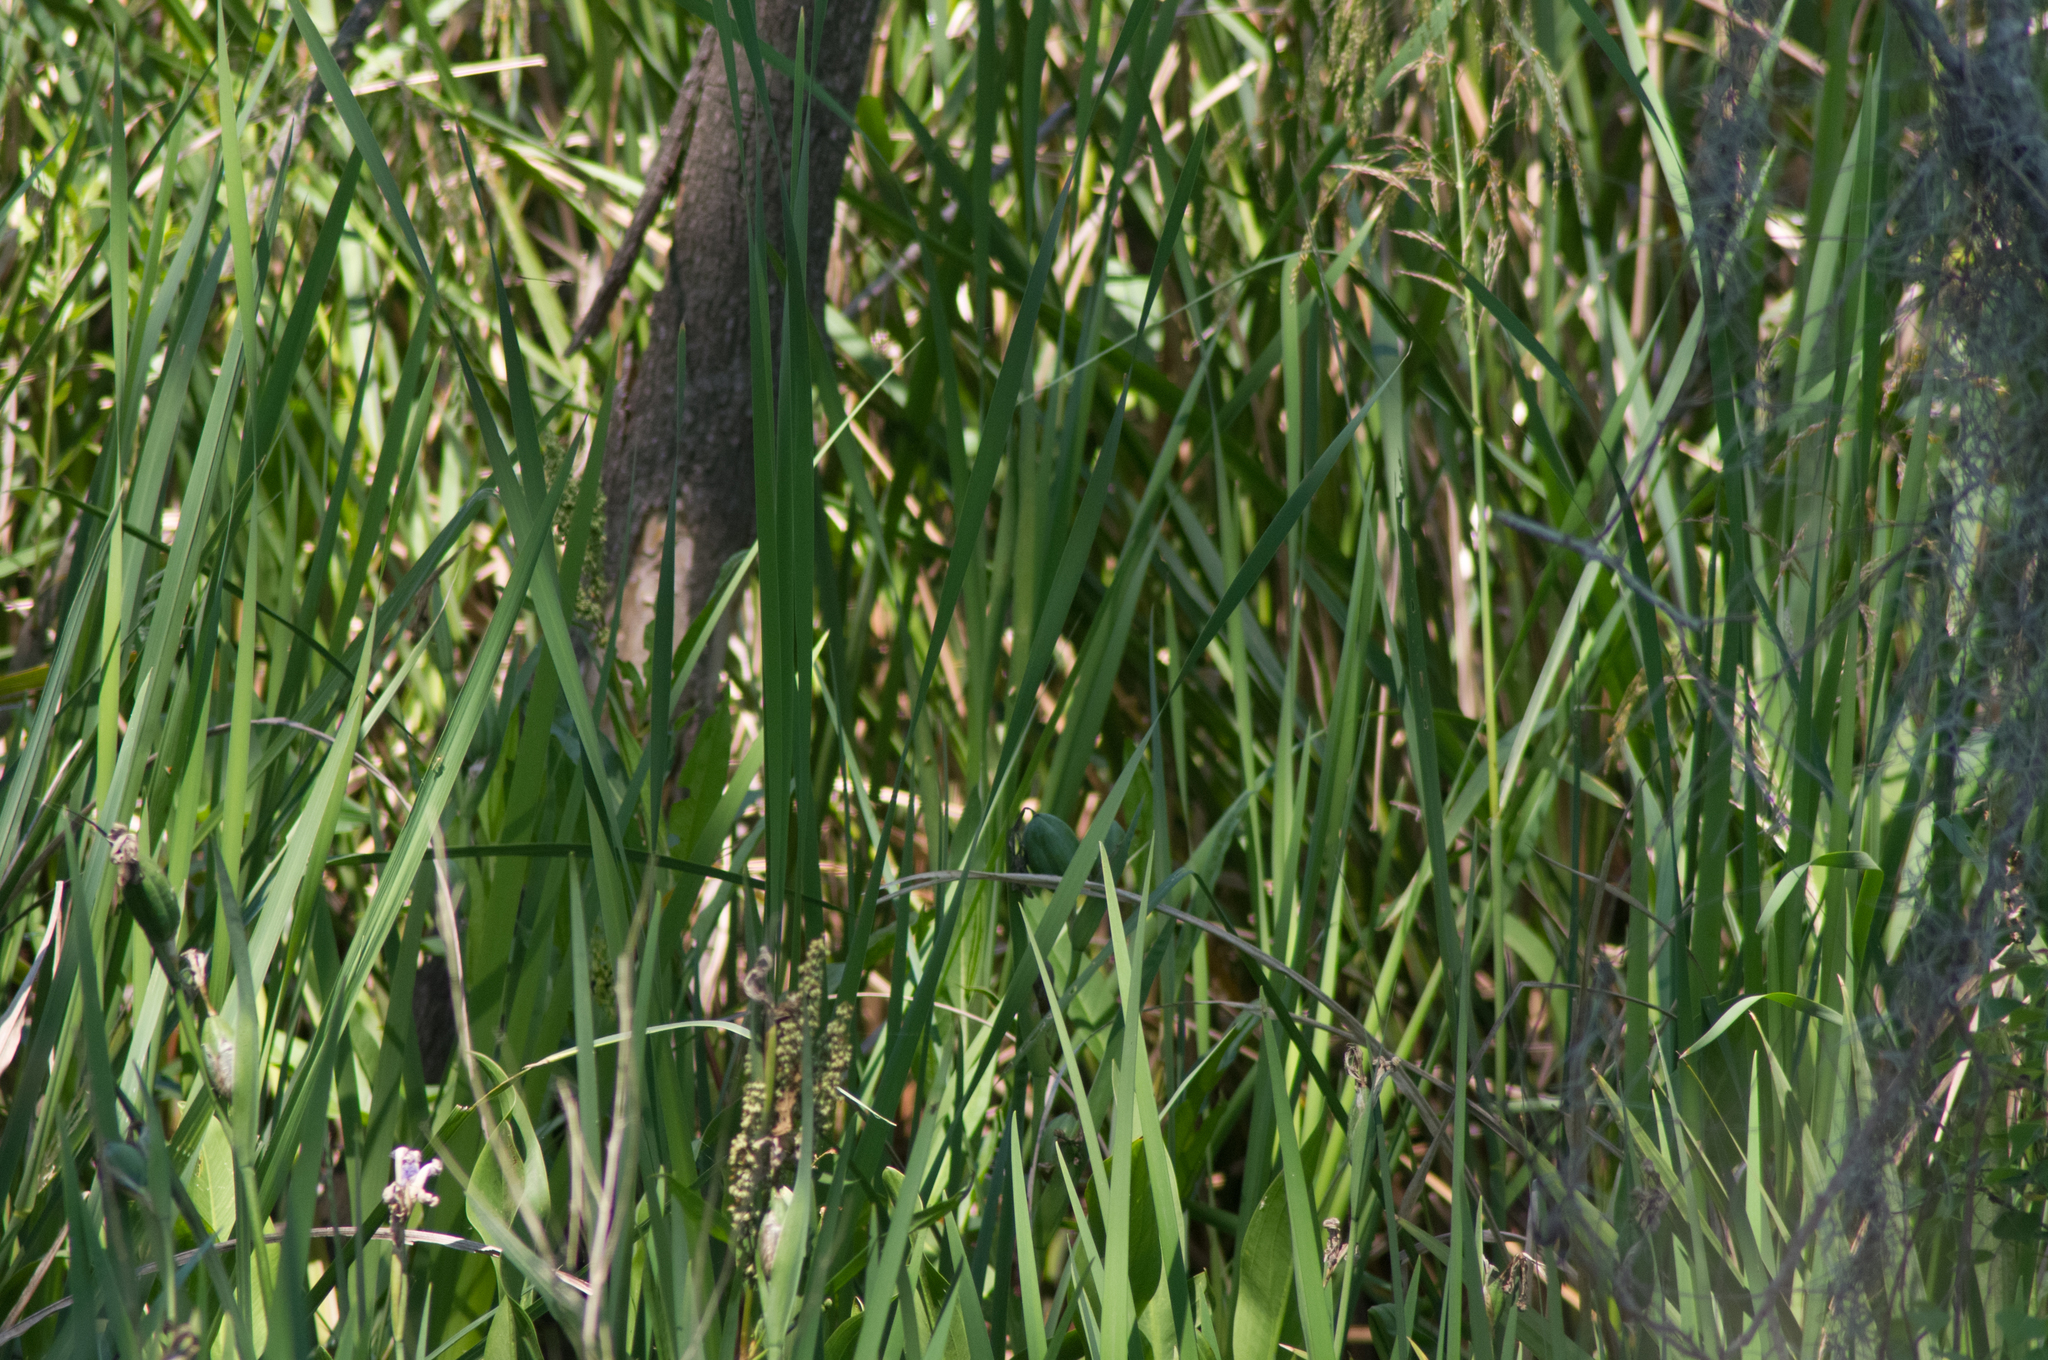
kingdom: Plantae
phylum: Tracheophyta
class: Liliopsida
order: Asparagales
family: Iridaceae
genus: Iris
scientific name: Iris giganticaerulea
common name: Giant blue iris
